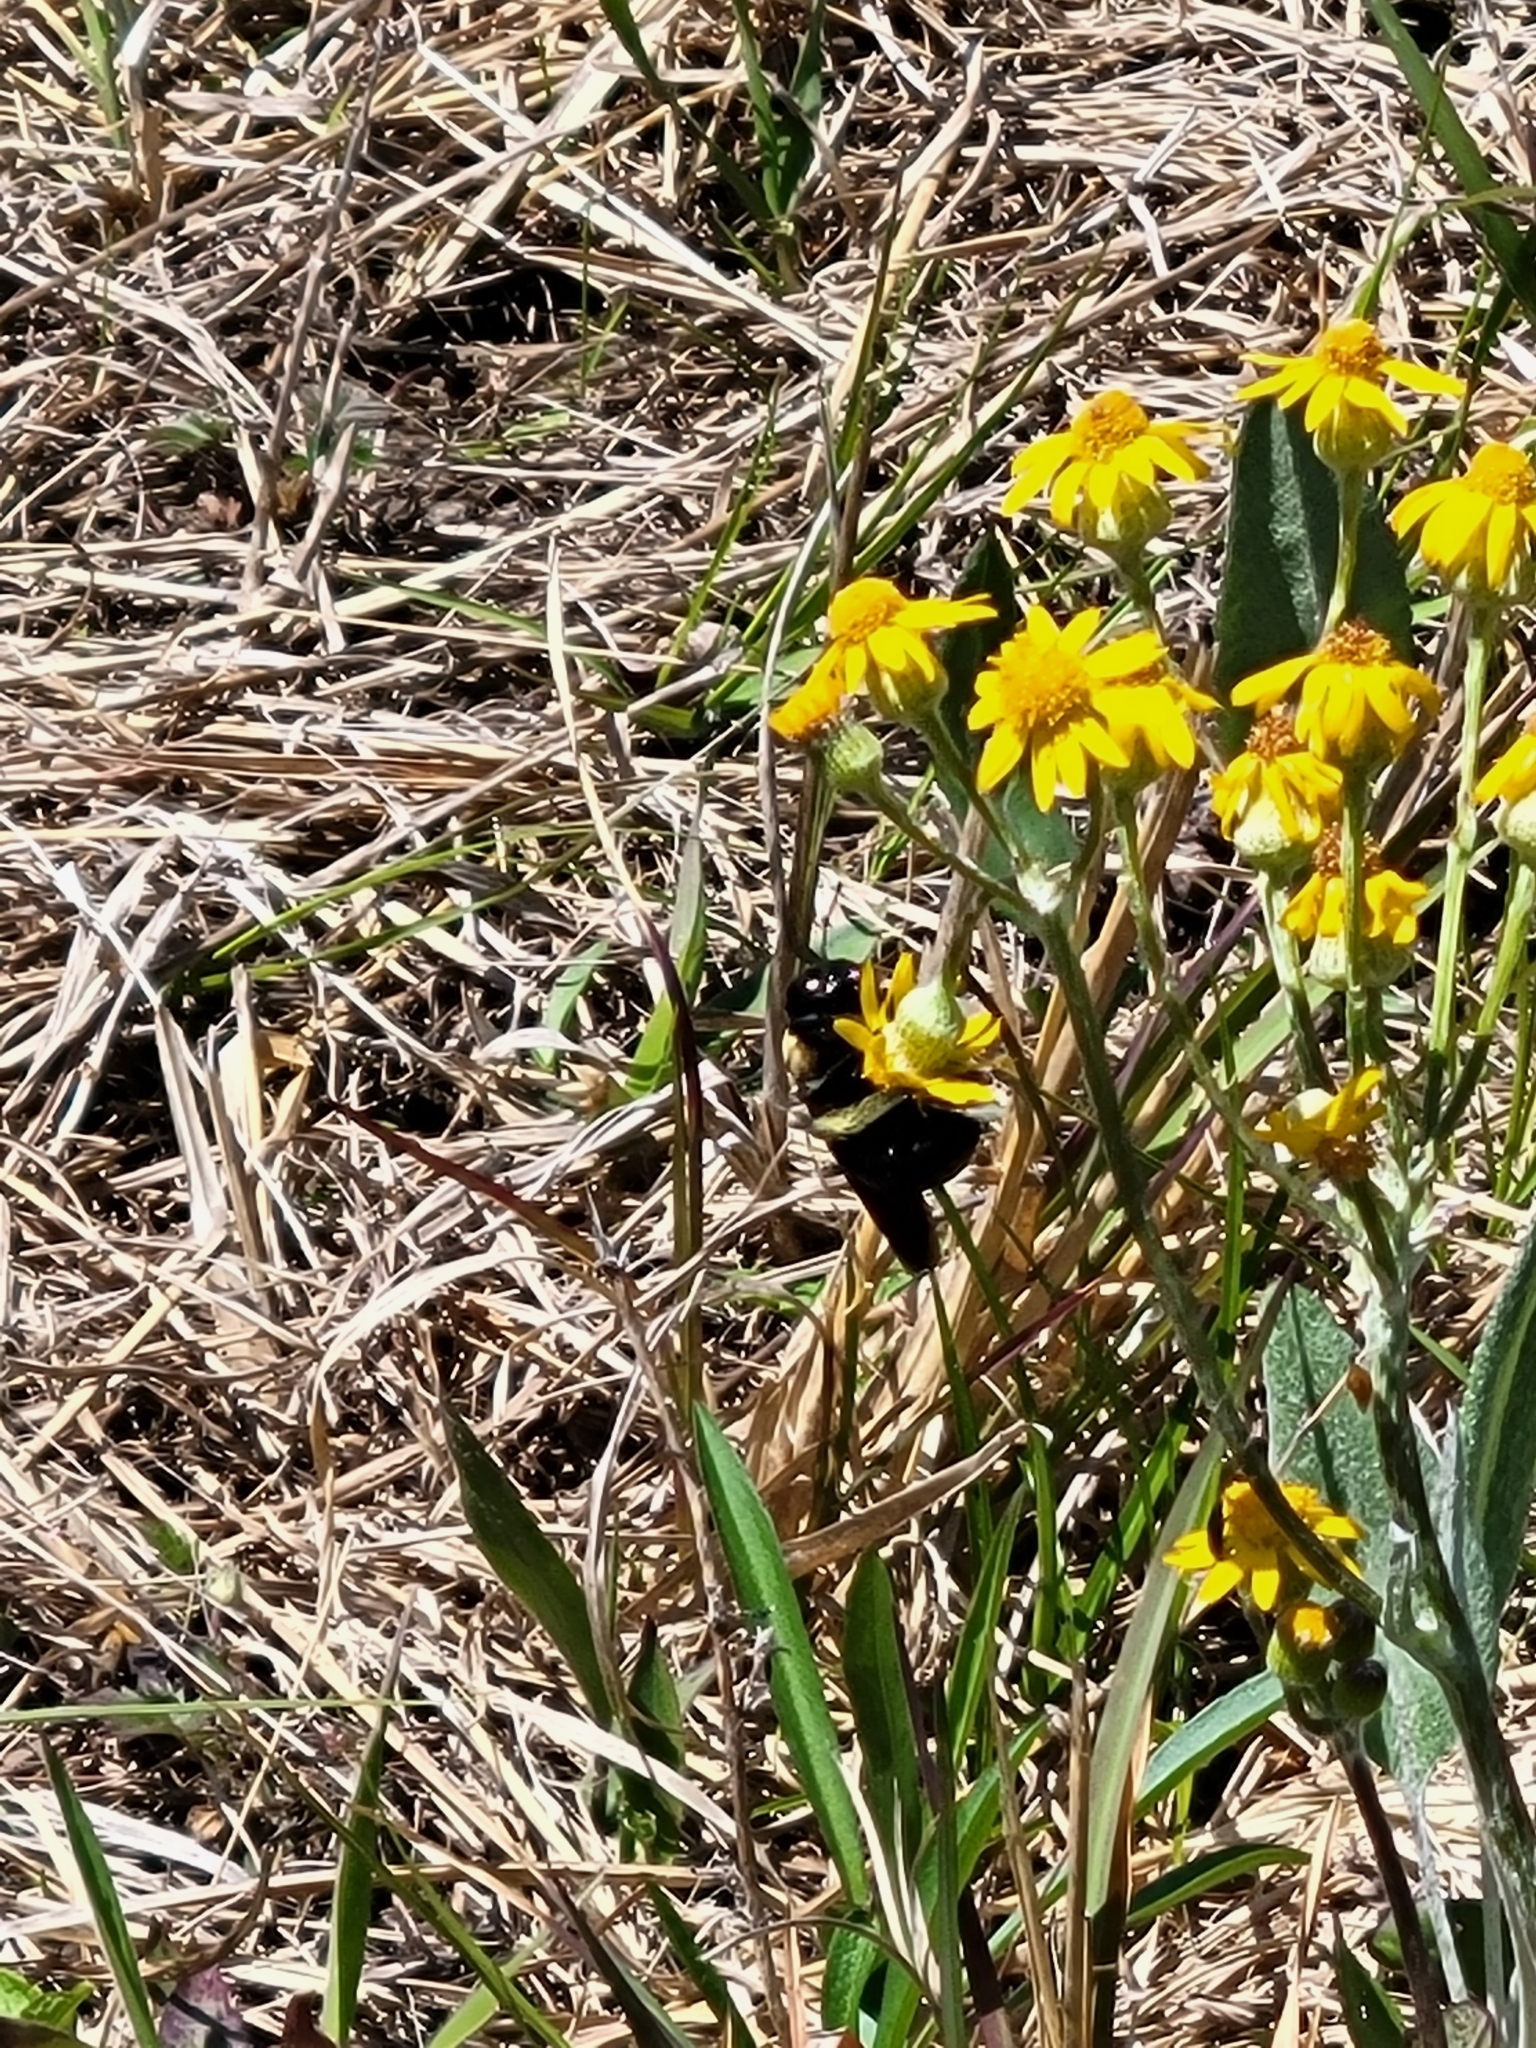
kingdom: Animalia
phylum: Arthropoda
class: Insecta
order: Hymenoptera
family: Apidae
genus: Xylocopa
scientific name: Xylocopa virginica
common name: Carpenter bee
